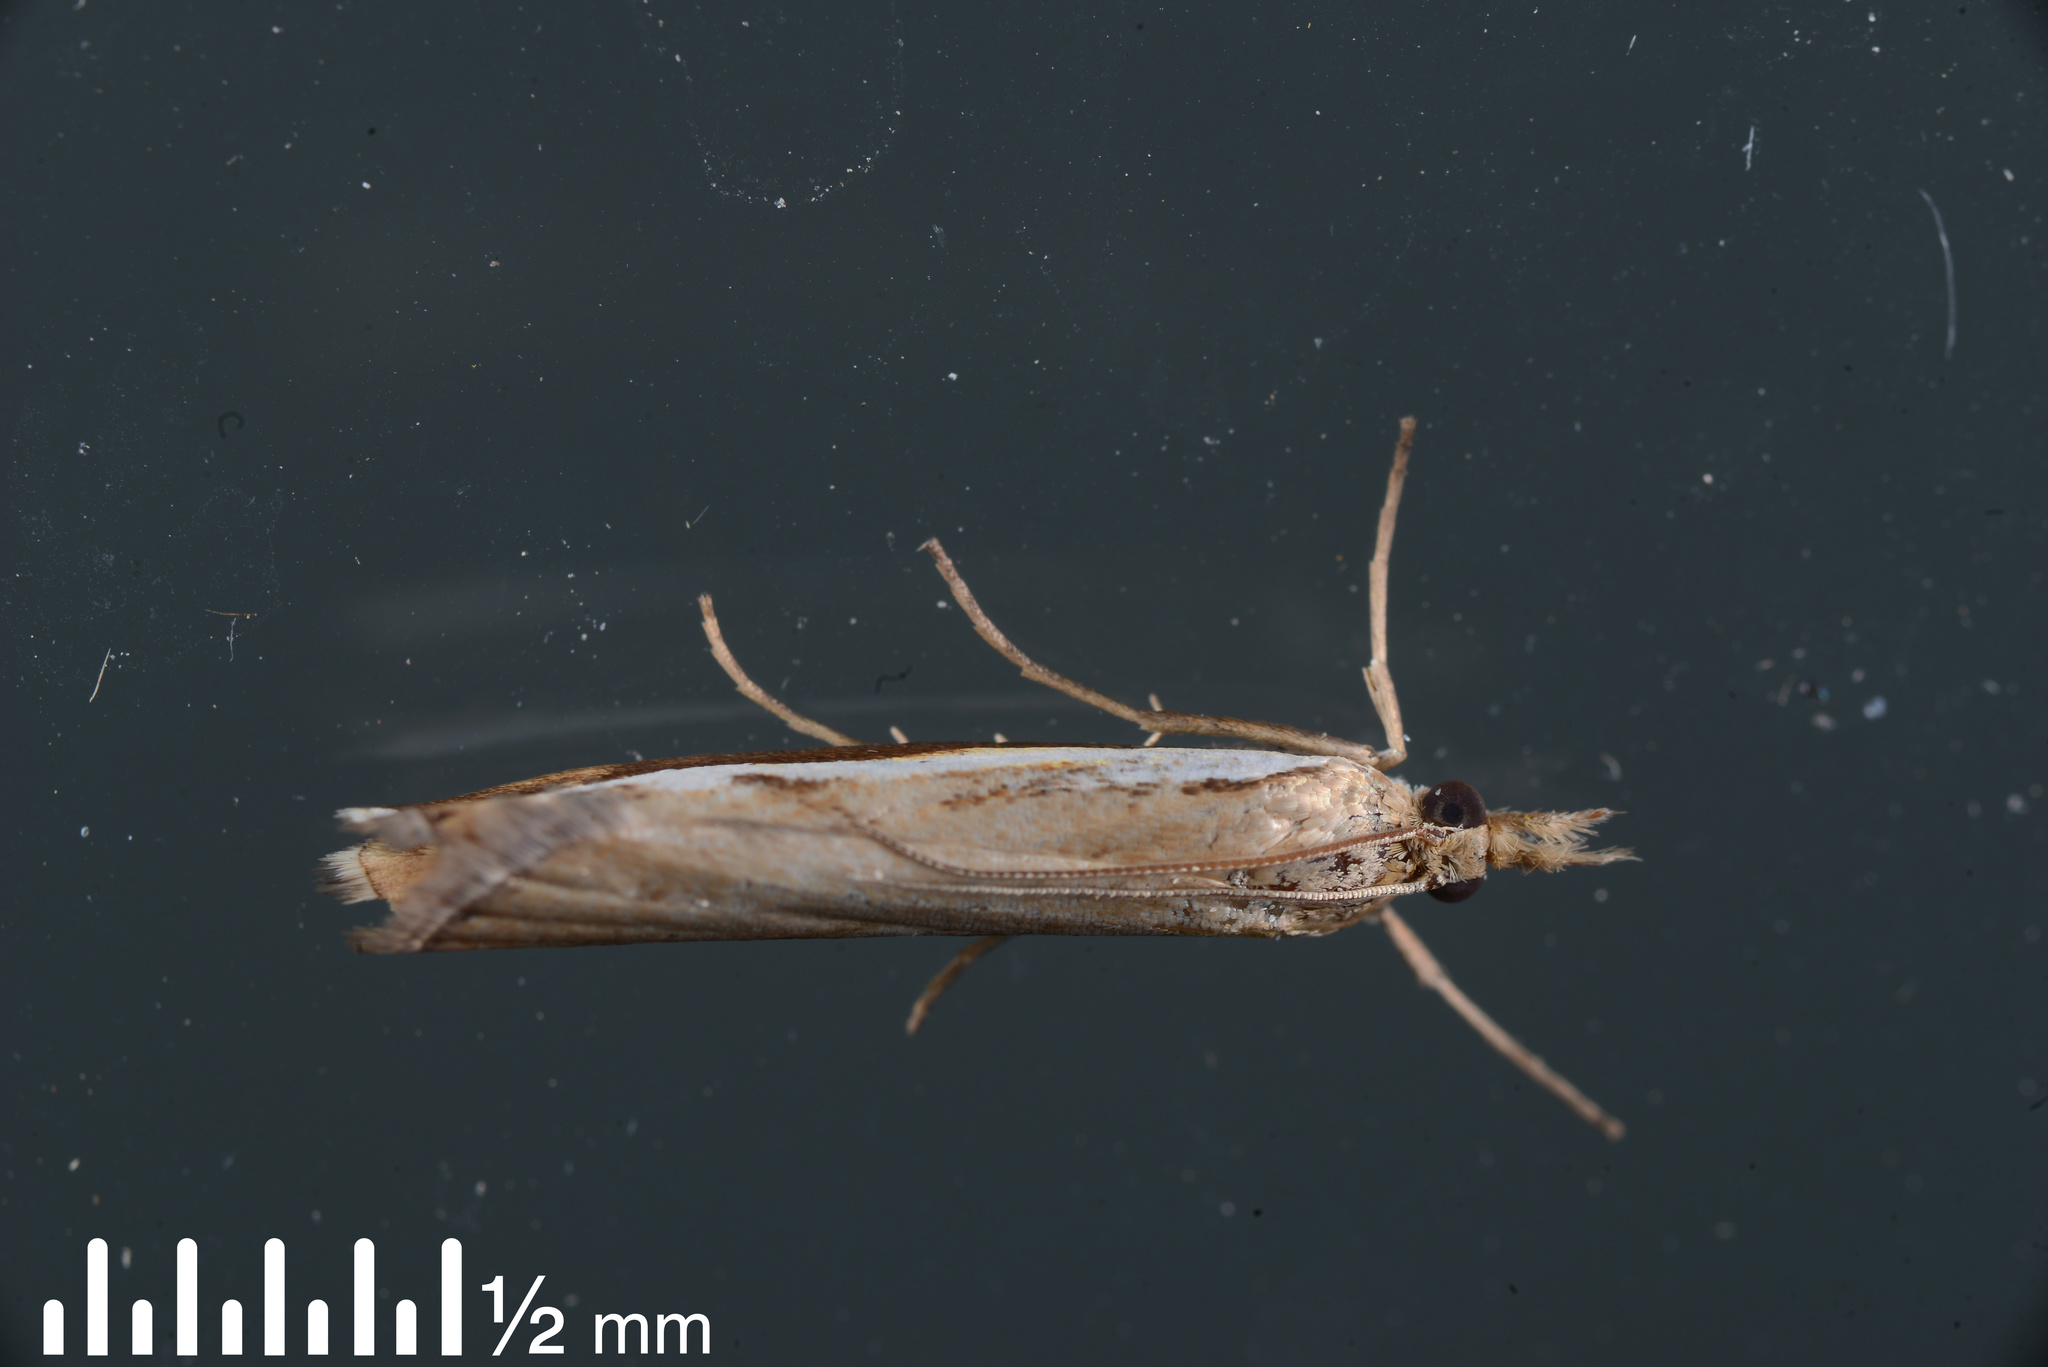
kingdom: Animalia
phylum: Arthropoda
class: Insecta
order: Lepidoptera
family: Crambidae
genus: Orocrambus
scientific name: Orocrambus flexuosellus
